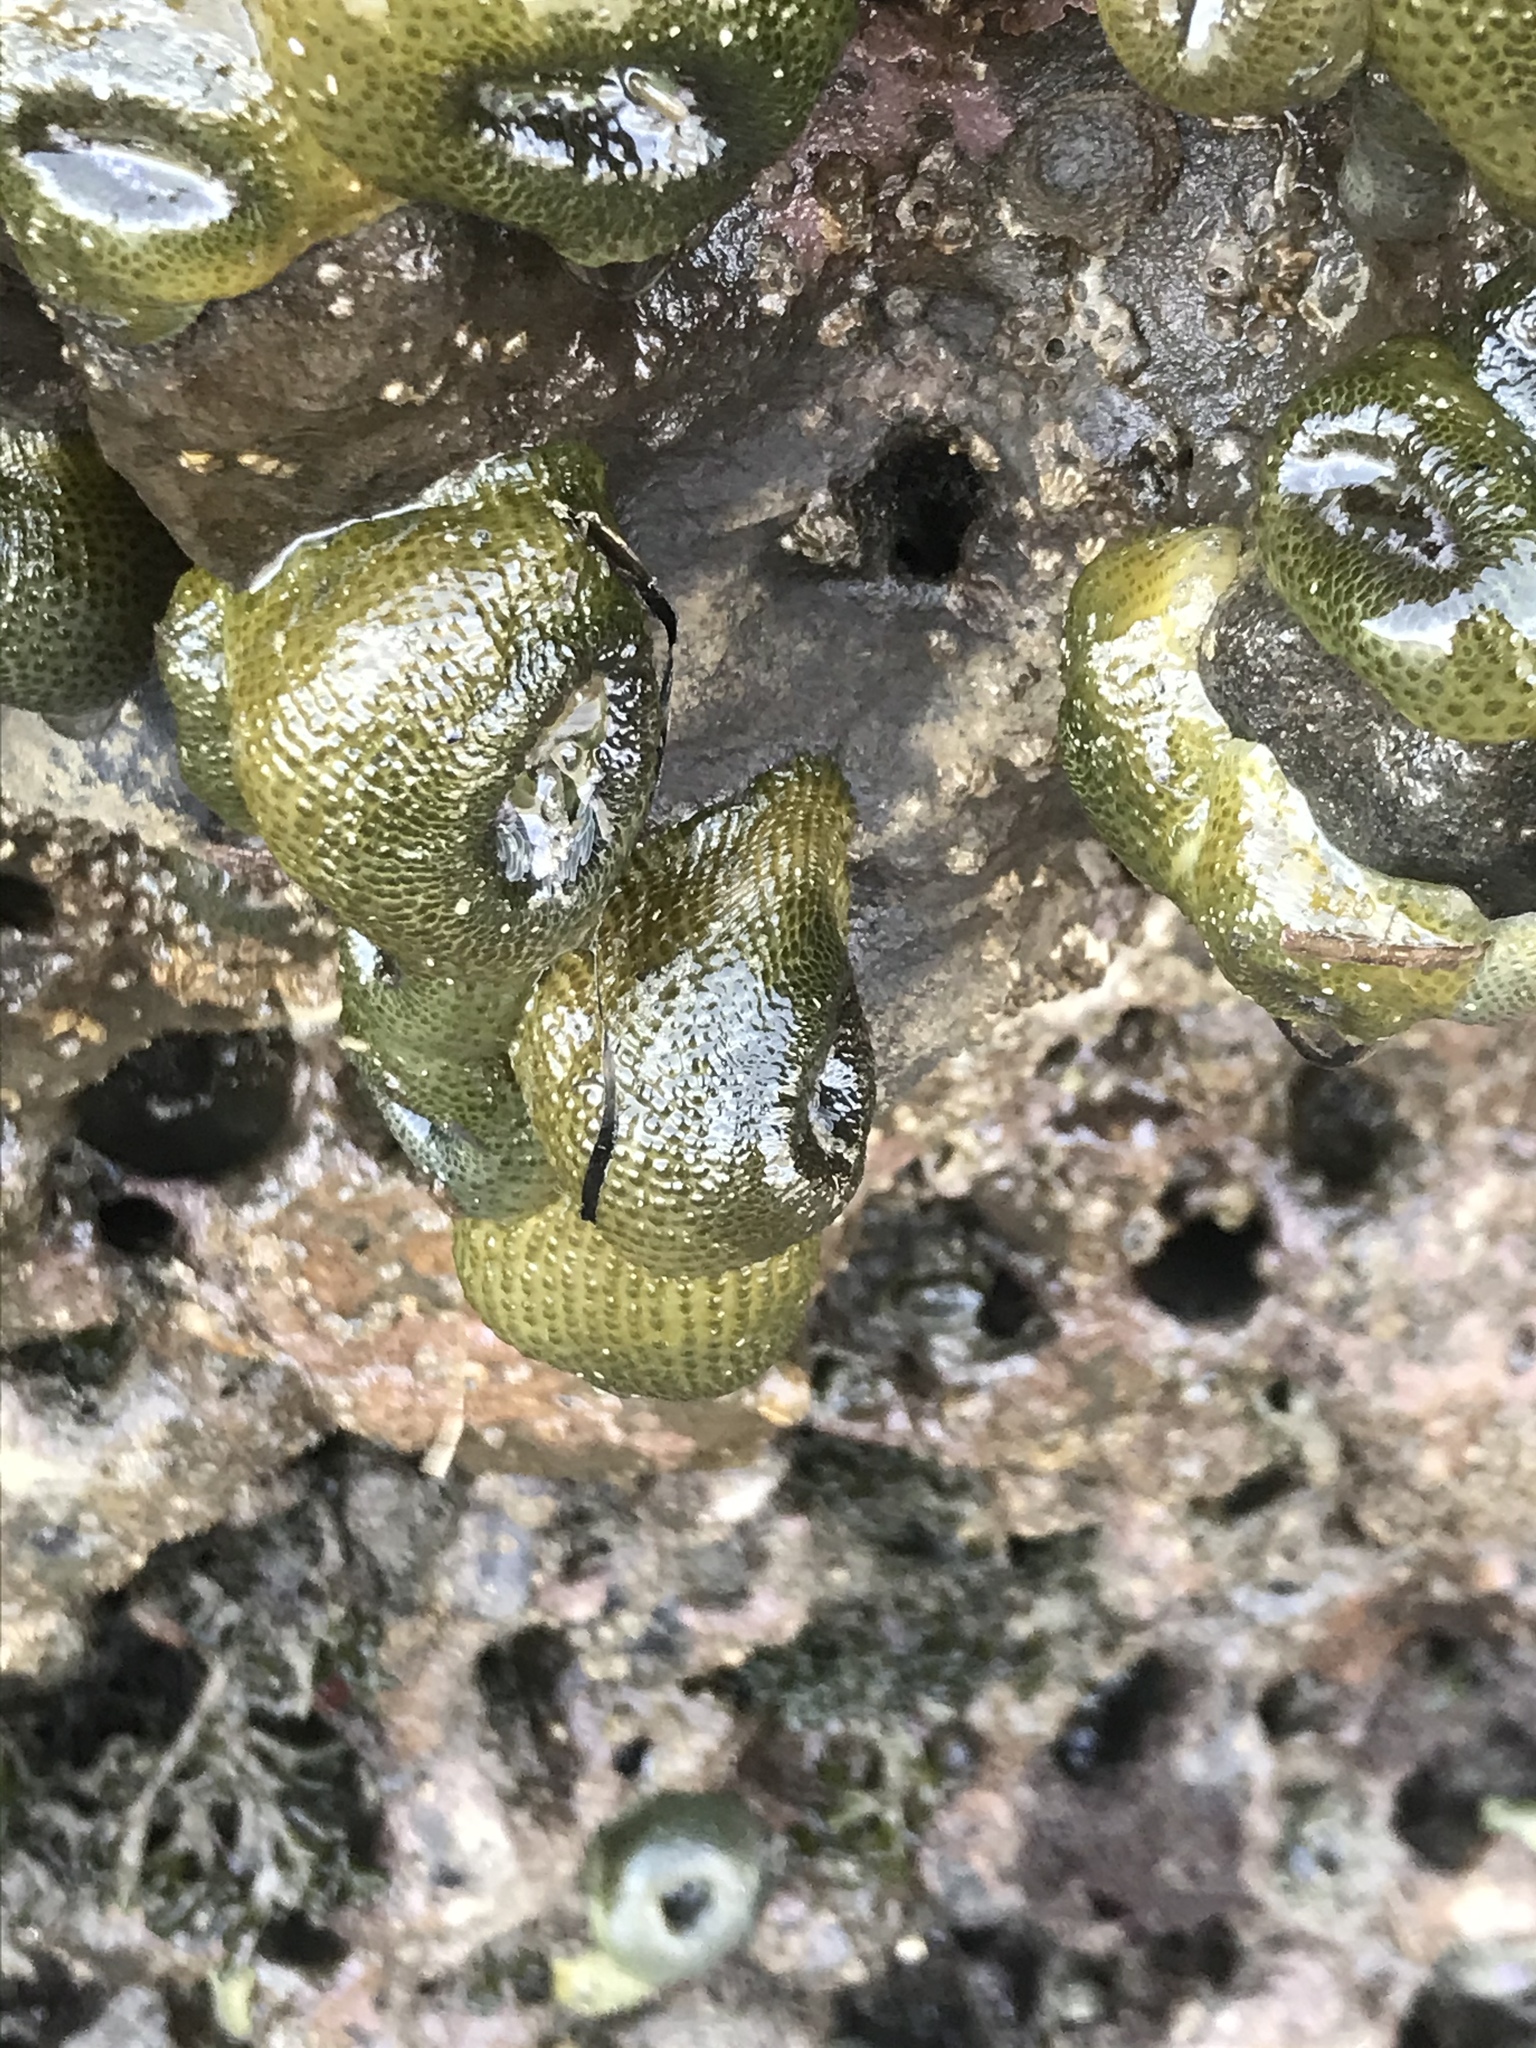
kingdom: Animalia
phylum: Cnidaria
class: Anthozoa
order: Actiniaria
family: Actiniidae
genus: Anthopleura
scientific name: Anthopleura elegantissima
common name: Clonal anemone
